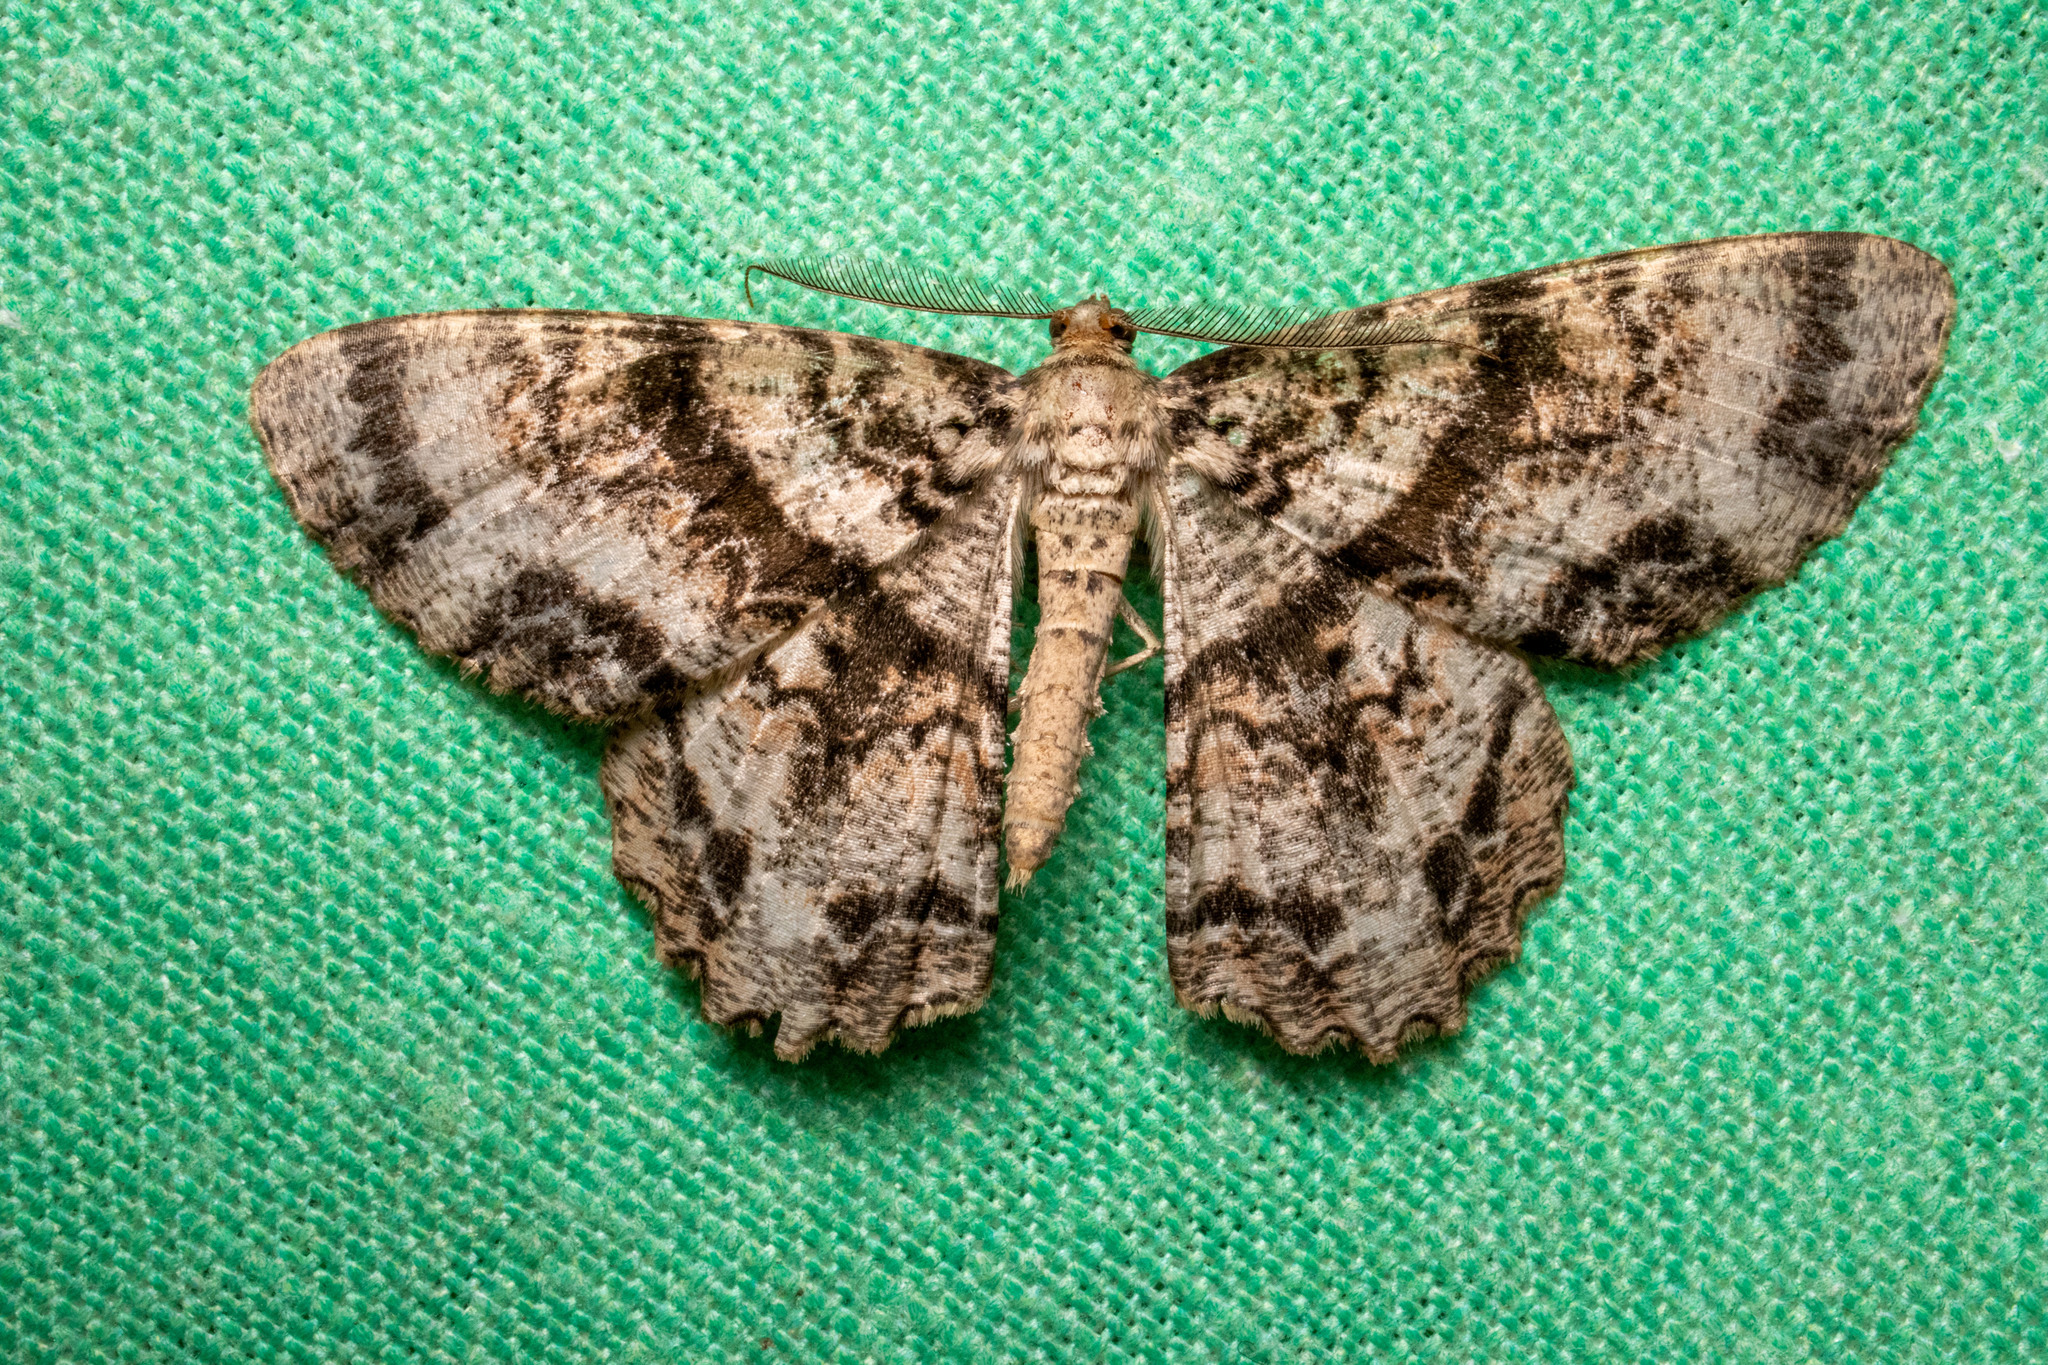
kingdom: Animalia
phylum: Arthropoda
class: Insecta
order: Lepidoptera
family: Geometridae
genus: Epimecis
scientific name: Epimecis hortaria
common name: Tulip-tree beauty
